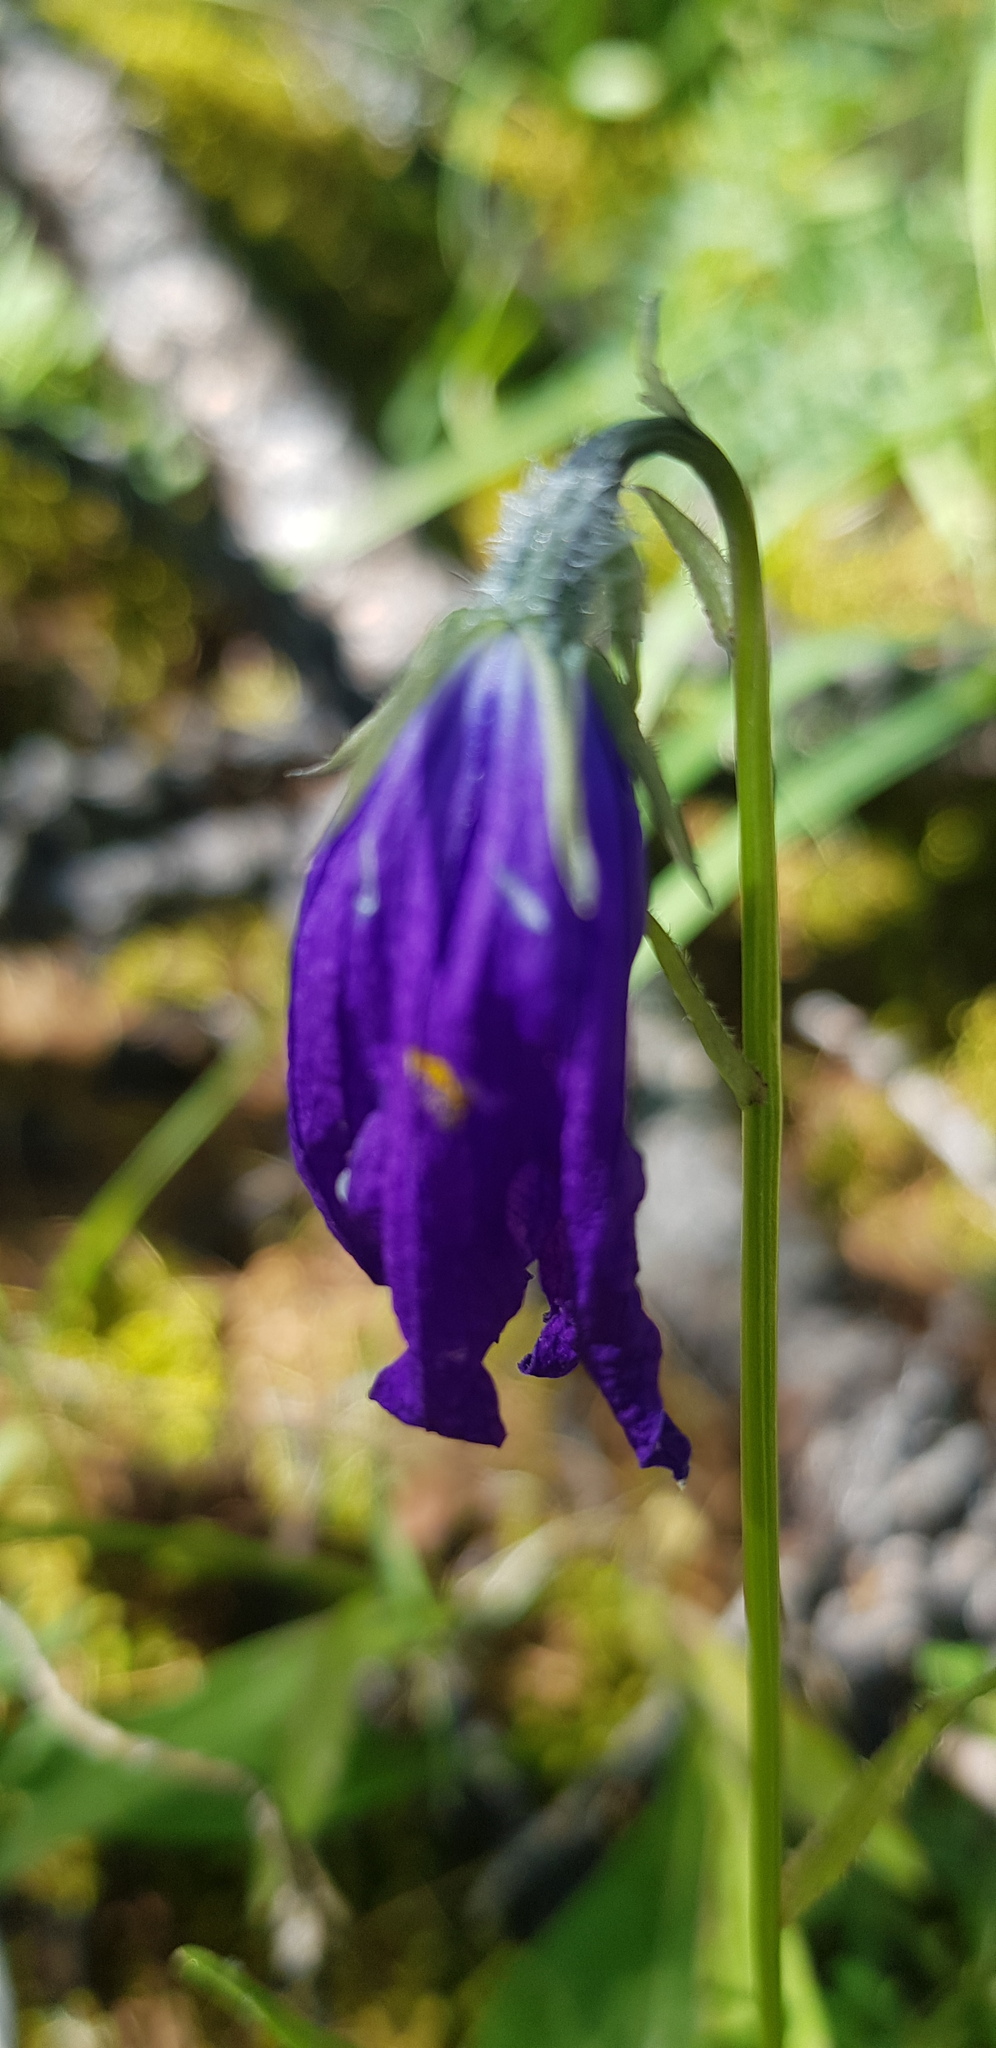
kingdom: Plantae
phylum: Tracheophyta
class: Magnoliopsida
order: Asterales
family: Campanulaceae
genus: Campanula
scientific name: Campanula stevenii
